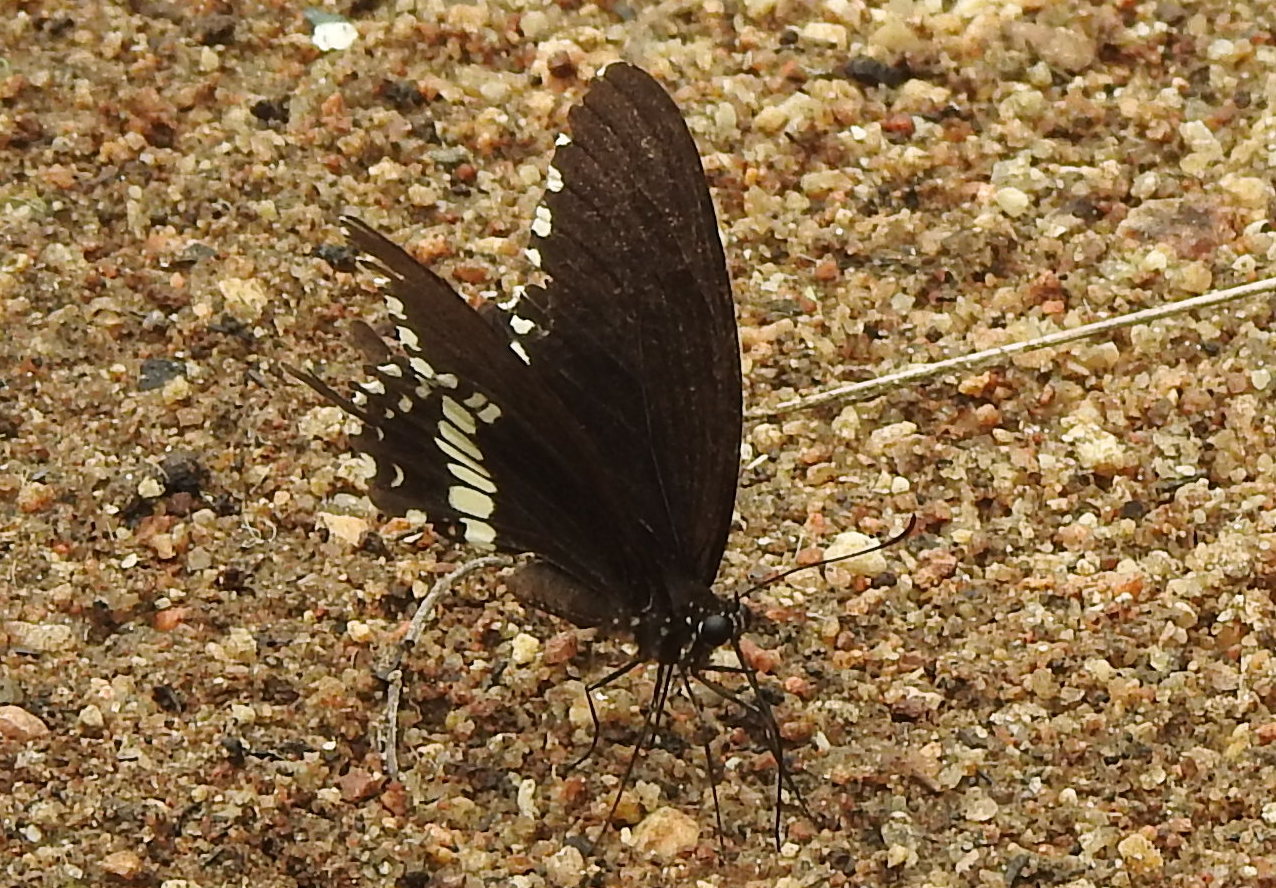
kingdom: Animalia
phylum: Arthropoda
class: Insecta
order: Lepidoptera
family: Papilionidae
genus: Papilio
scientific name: Papilio polytes
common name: Common mormon
